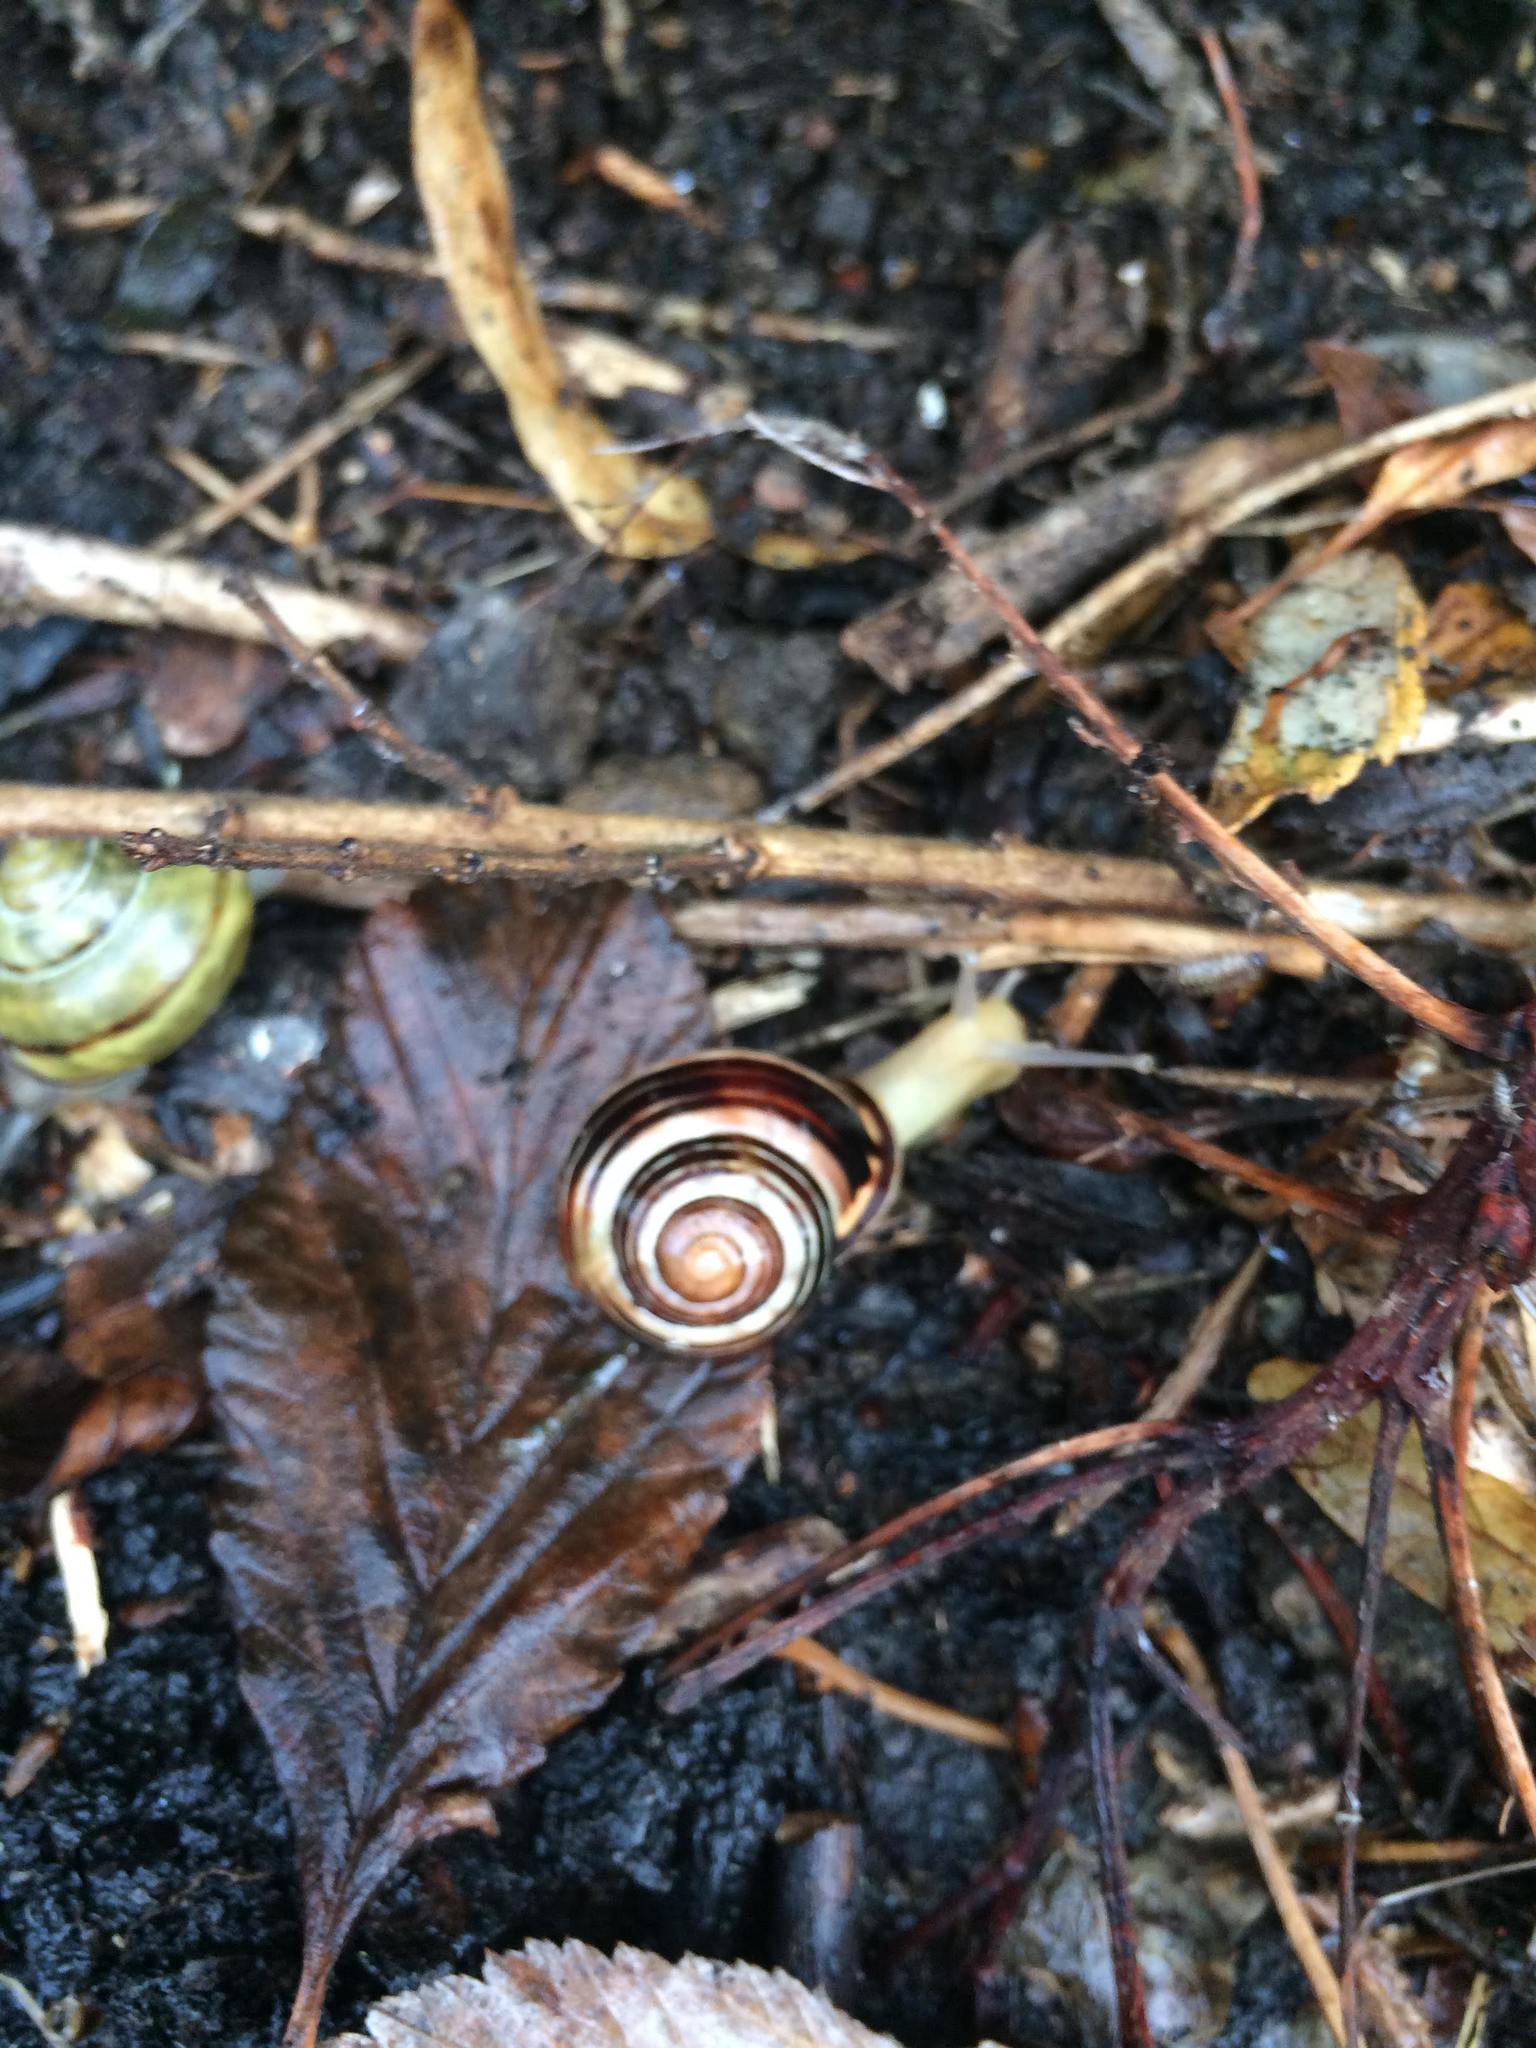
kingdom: Animalia
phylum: Mollusca
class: Gastropoda
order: Stylommatophora
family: Helicidae
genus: Cepaea
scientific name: Cepaea nemoralis
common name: Grovesnail
